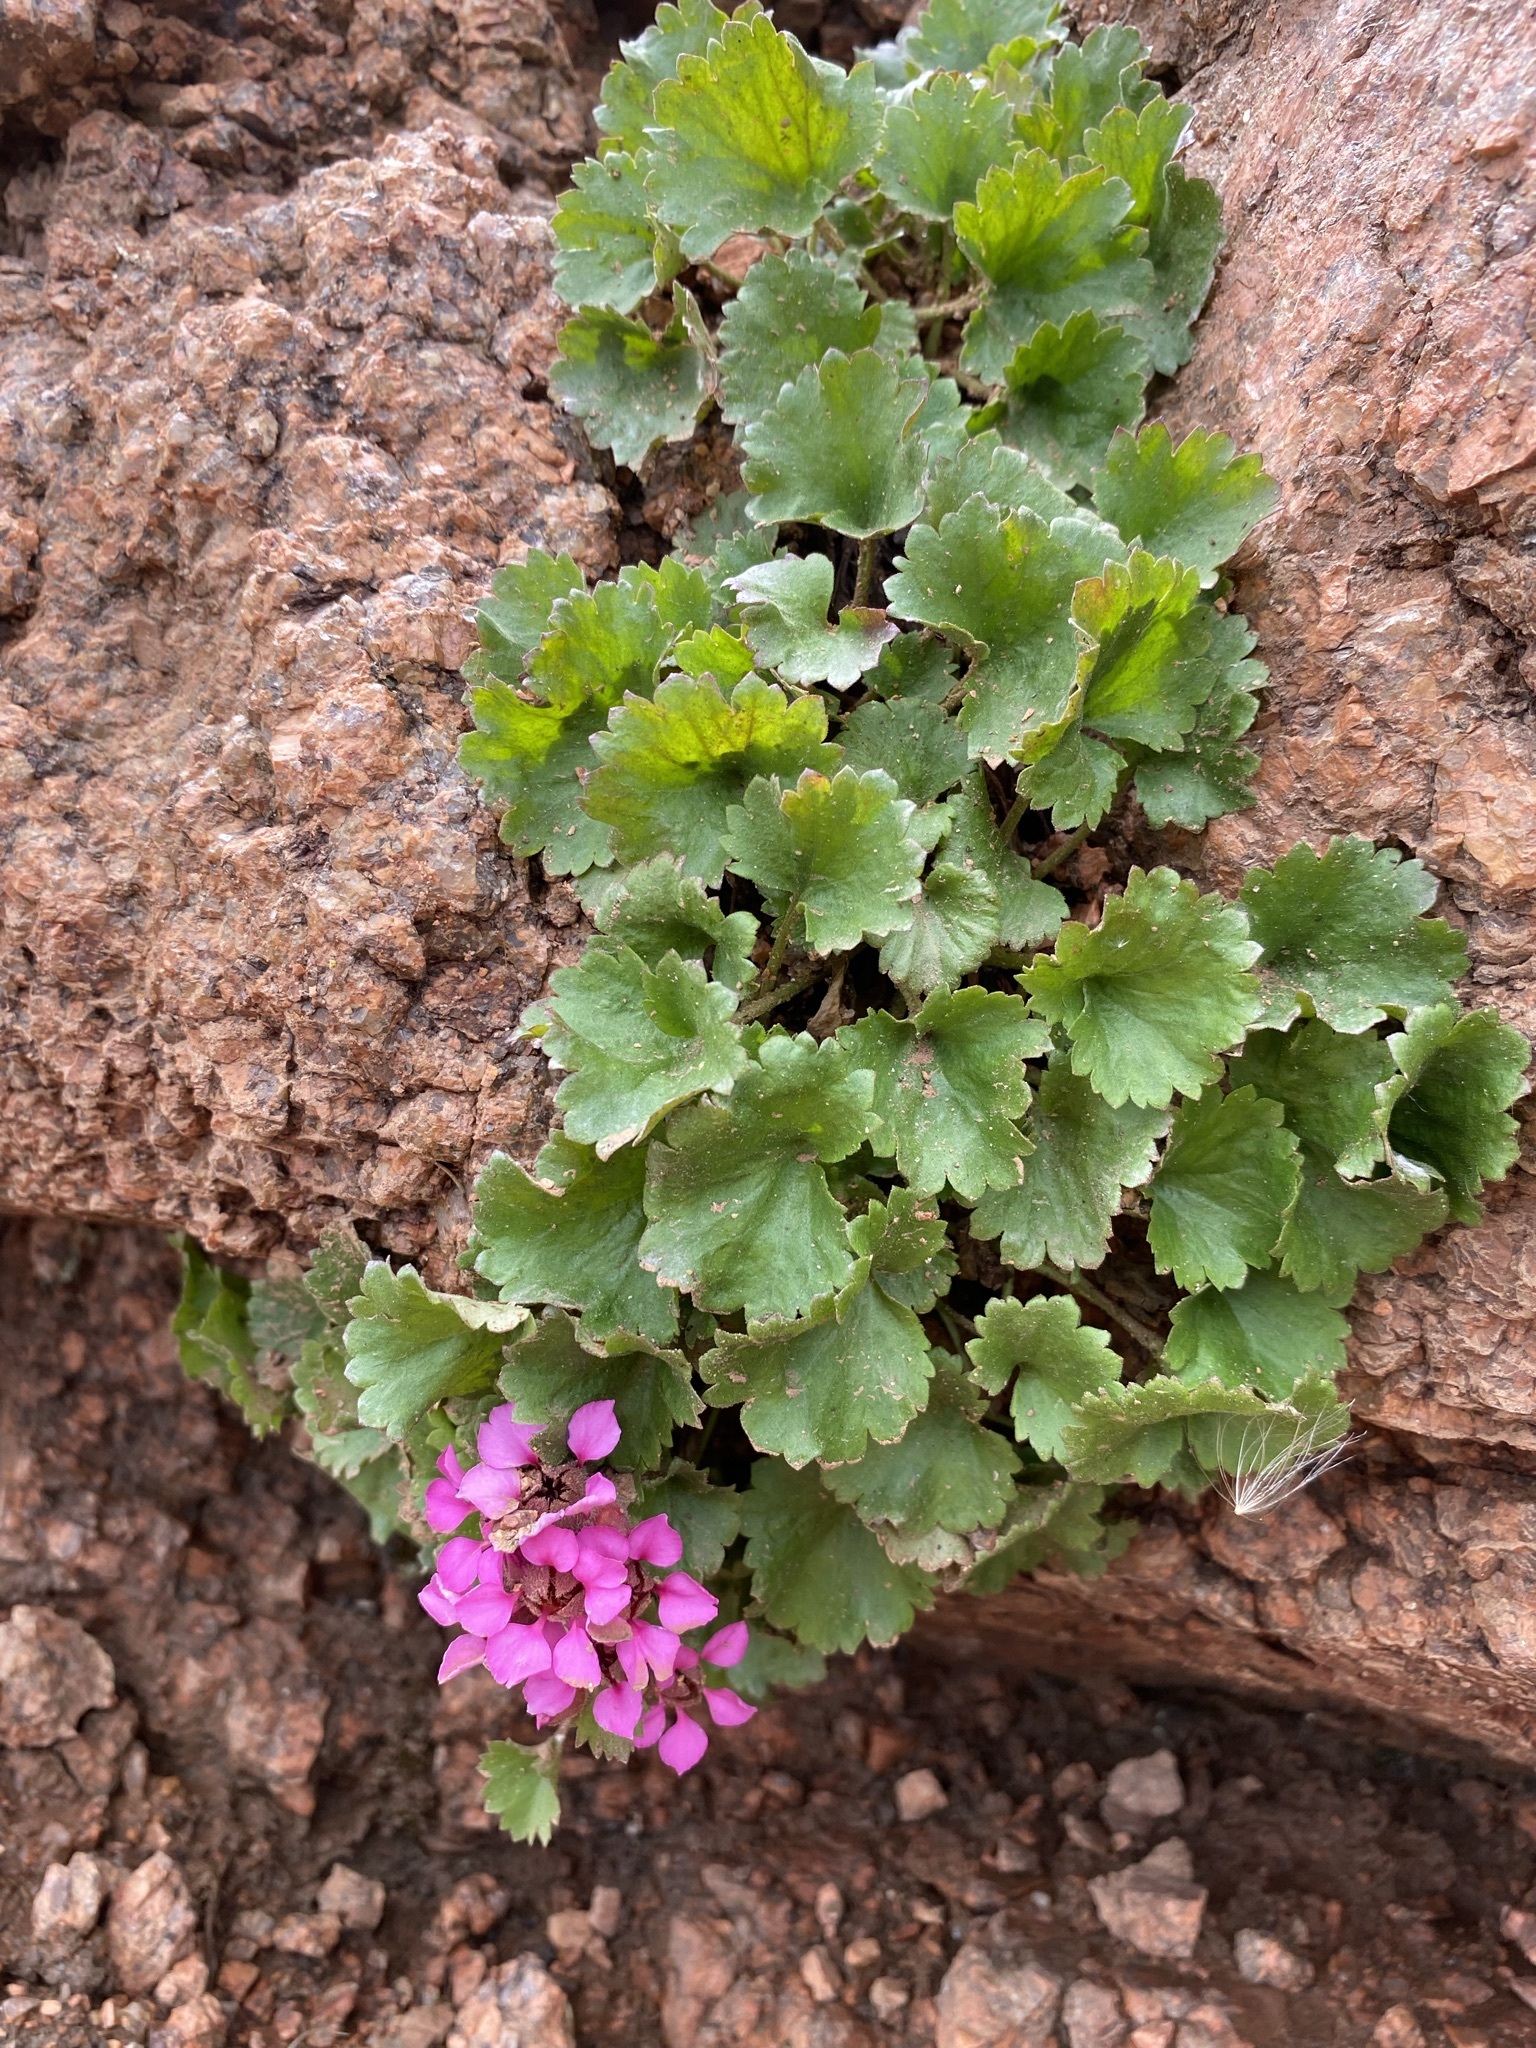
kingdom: Plantae
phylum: Tracheophyta
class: Magnoliopsida
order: Saxifragales
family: Saxifragaceae
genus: Telesonix
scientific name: Telesonix jamesii
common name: James's-saxifrage
